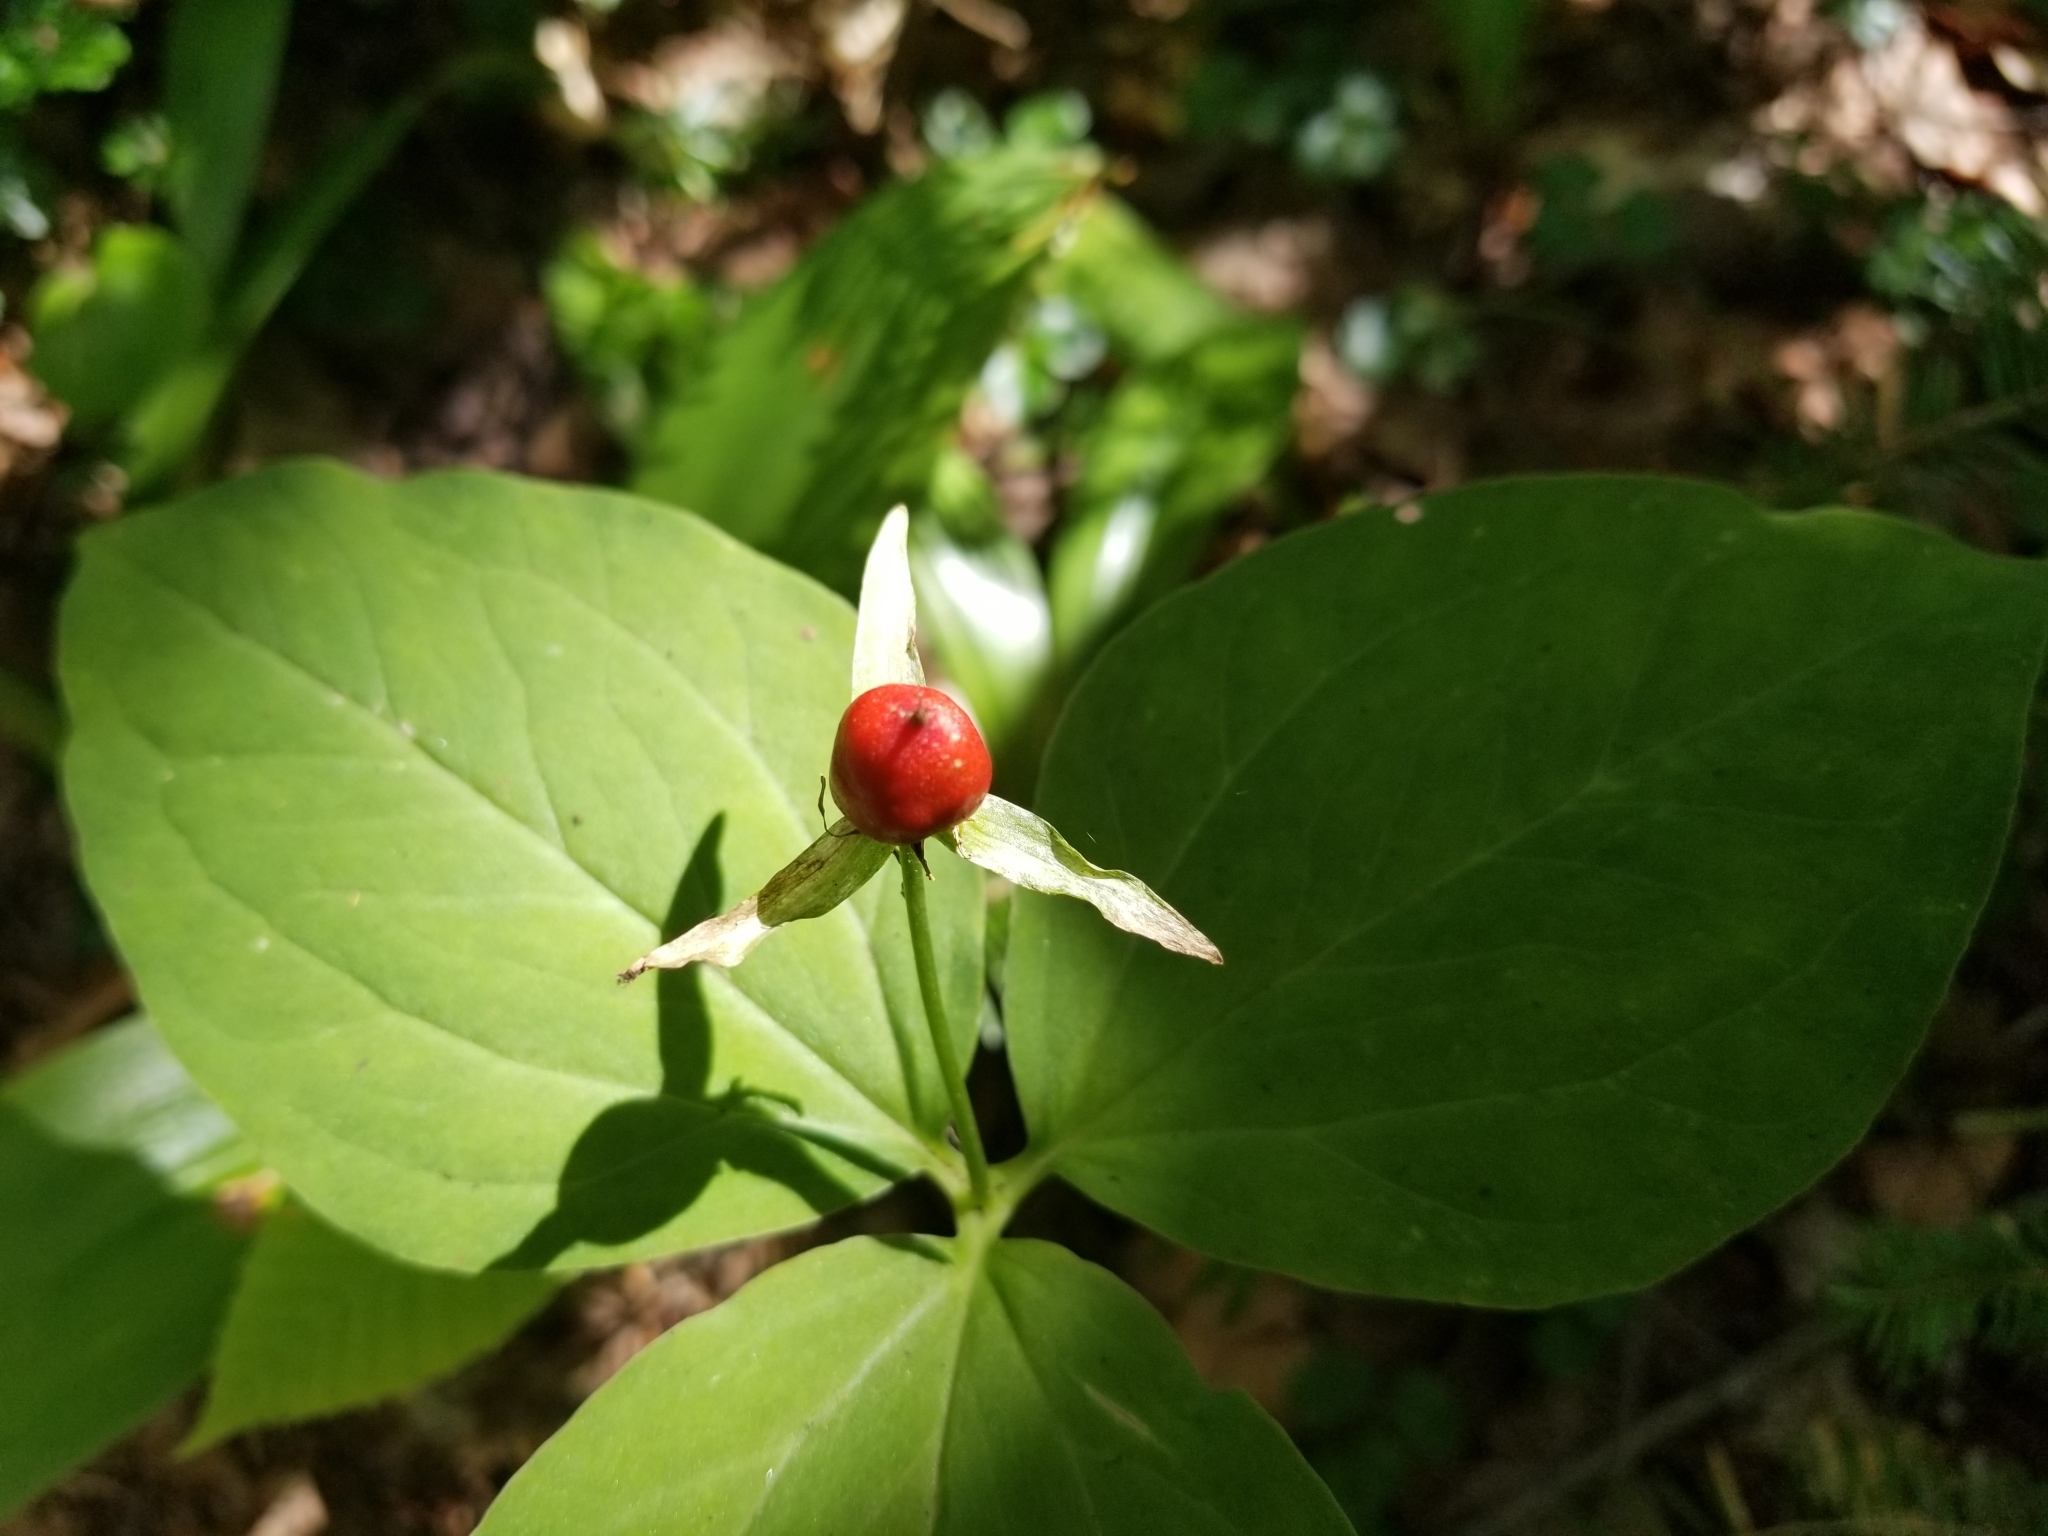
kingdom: Plantae
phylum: Tracheophyta
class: Liliopsida
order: Liliales
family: Melanthiaceae
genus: Trillium
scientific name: Trillium undulatum
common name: Paint trillium
